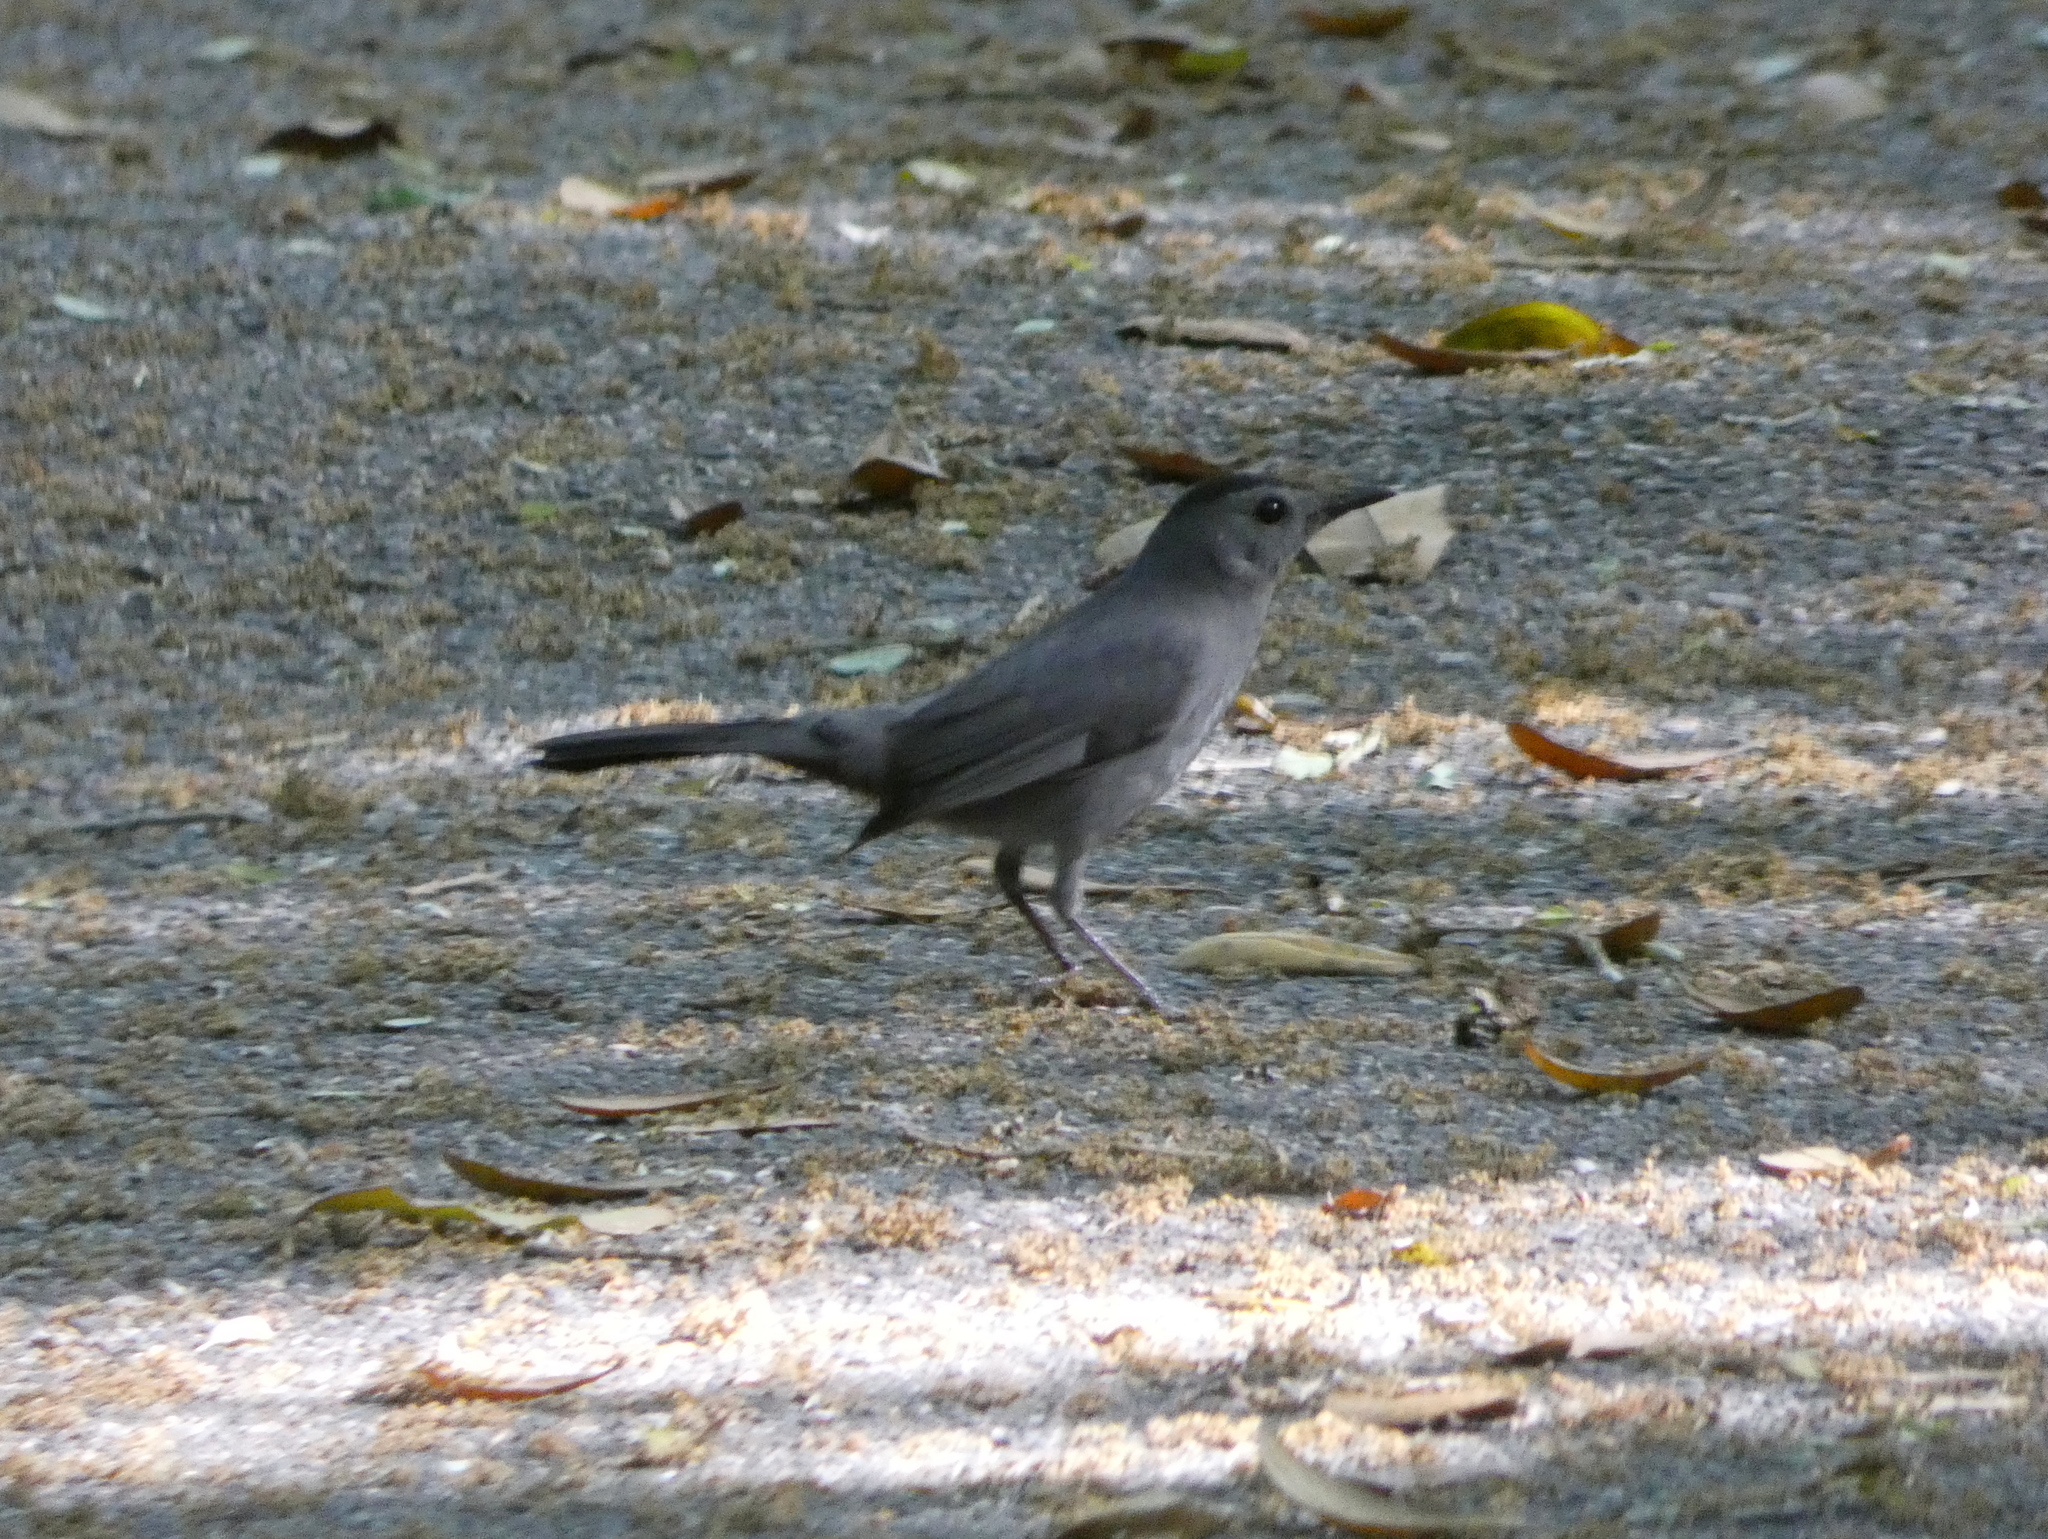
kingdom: Animalia
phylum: Chordata
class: Aves
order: Passeriformes
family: Mimidae
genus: Dumetella
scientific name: Dumetella carolinensis
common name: Gray catbird
